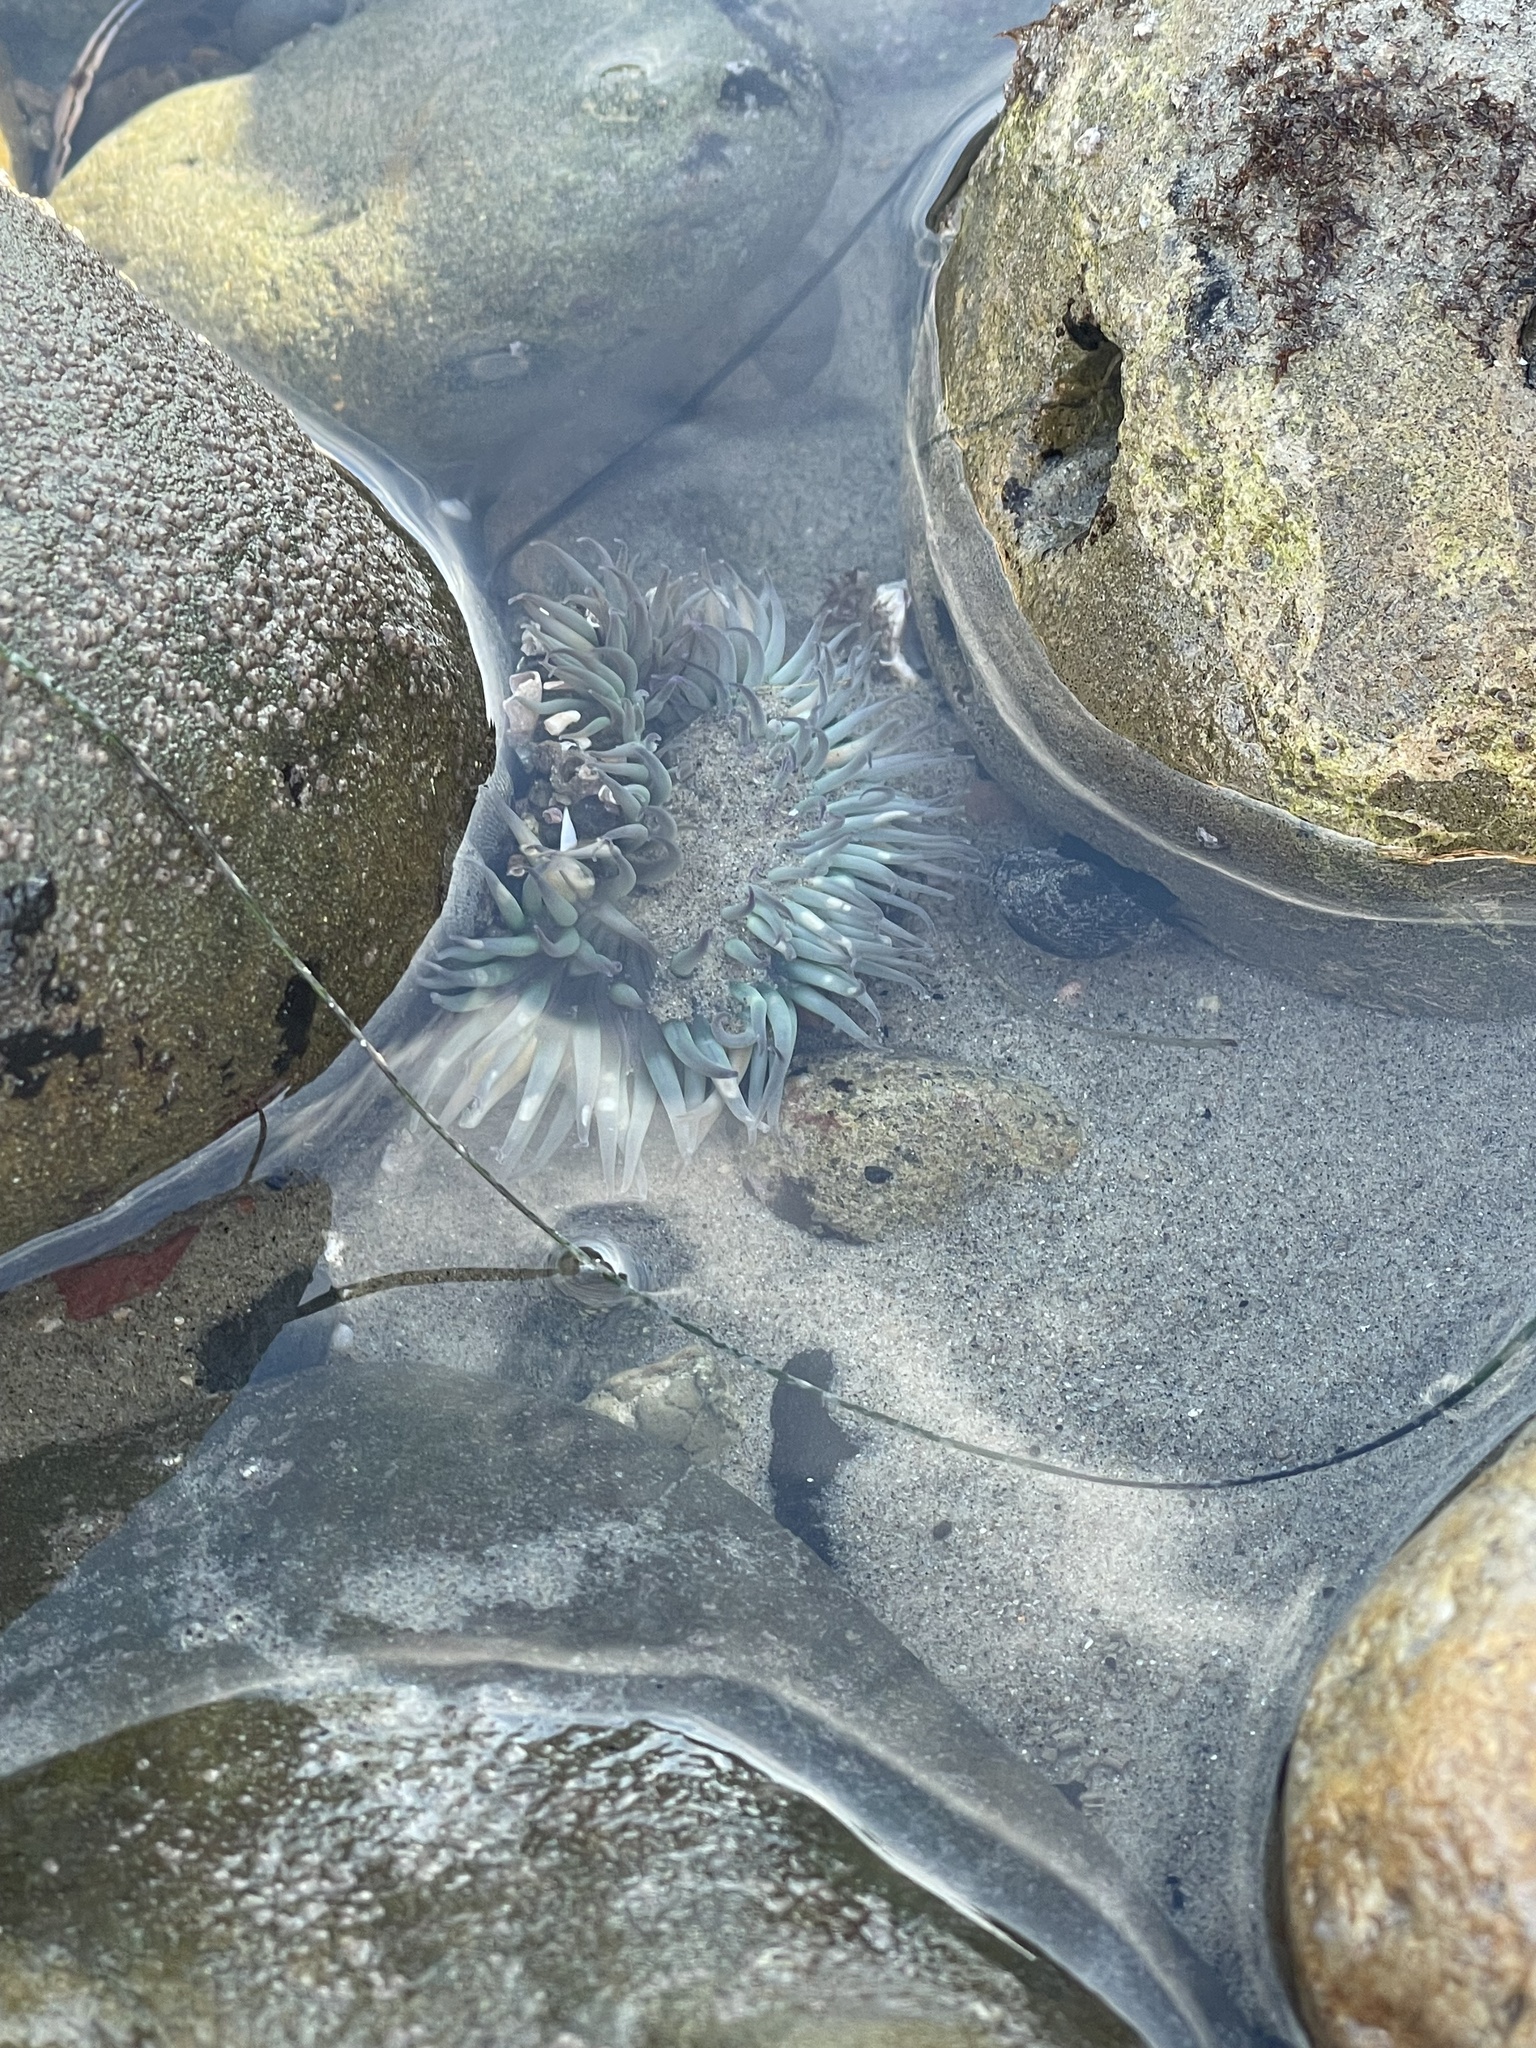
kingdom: Animalia
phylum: Cnidaria
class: Anthozoa
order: Actiniaria
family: Actiniidae
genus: Anthopleura
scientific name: Anthopleura sola
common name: Sun anemone
